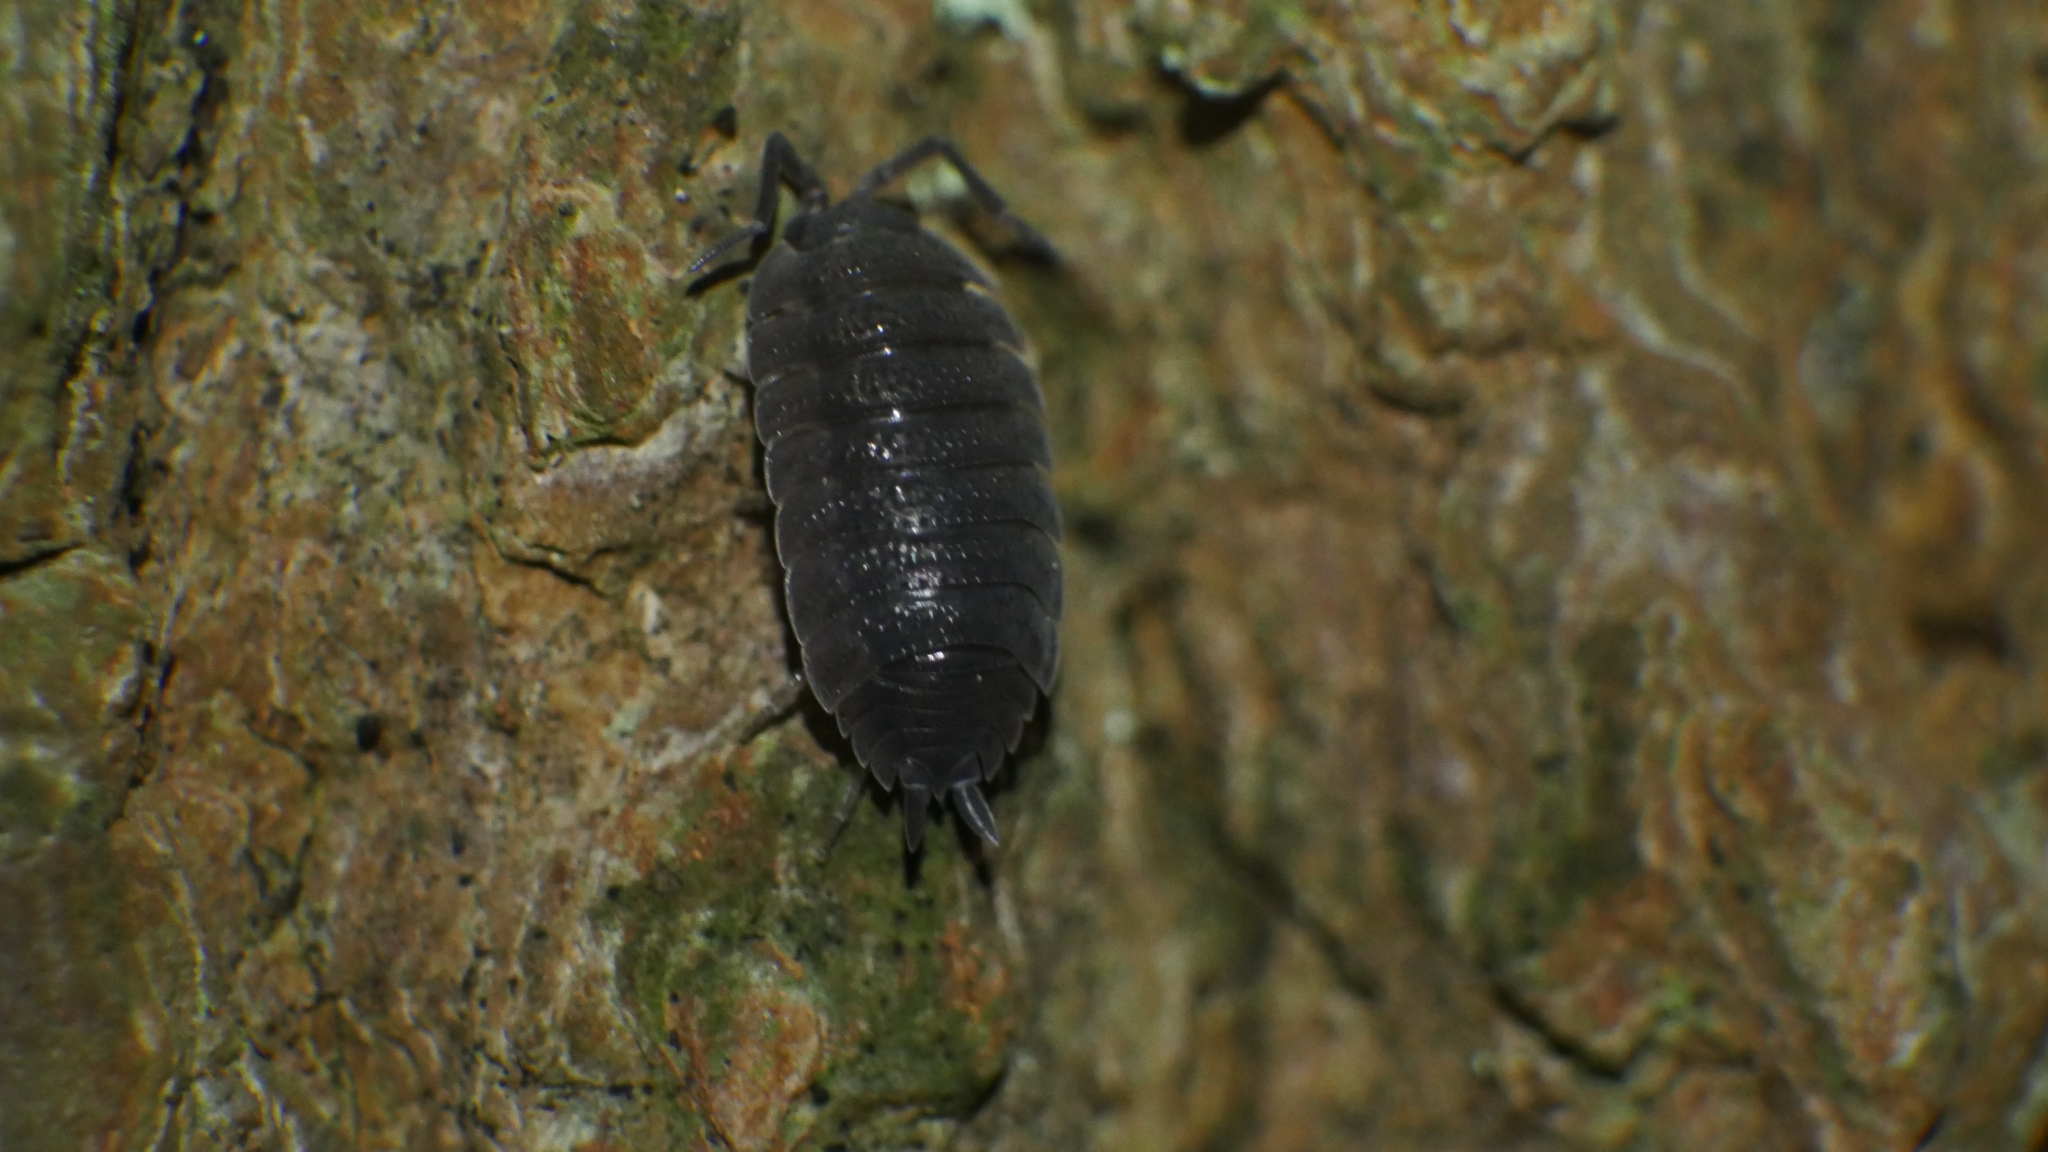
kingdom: Animalia
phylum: Arthropoda
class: Malacostraca
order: Isopoda
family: Porcellionidae
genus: Porcellio
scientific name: Porcellio scaber
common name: Common rough woodlouse
